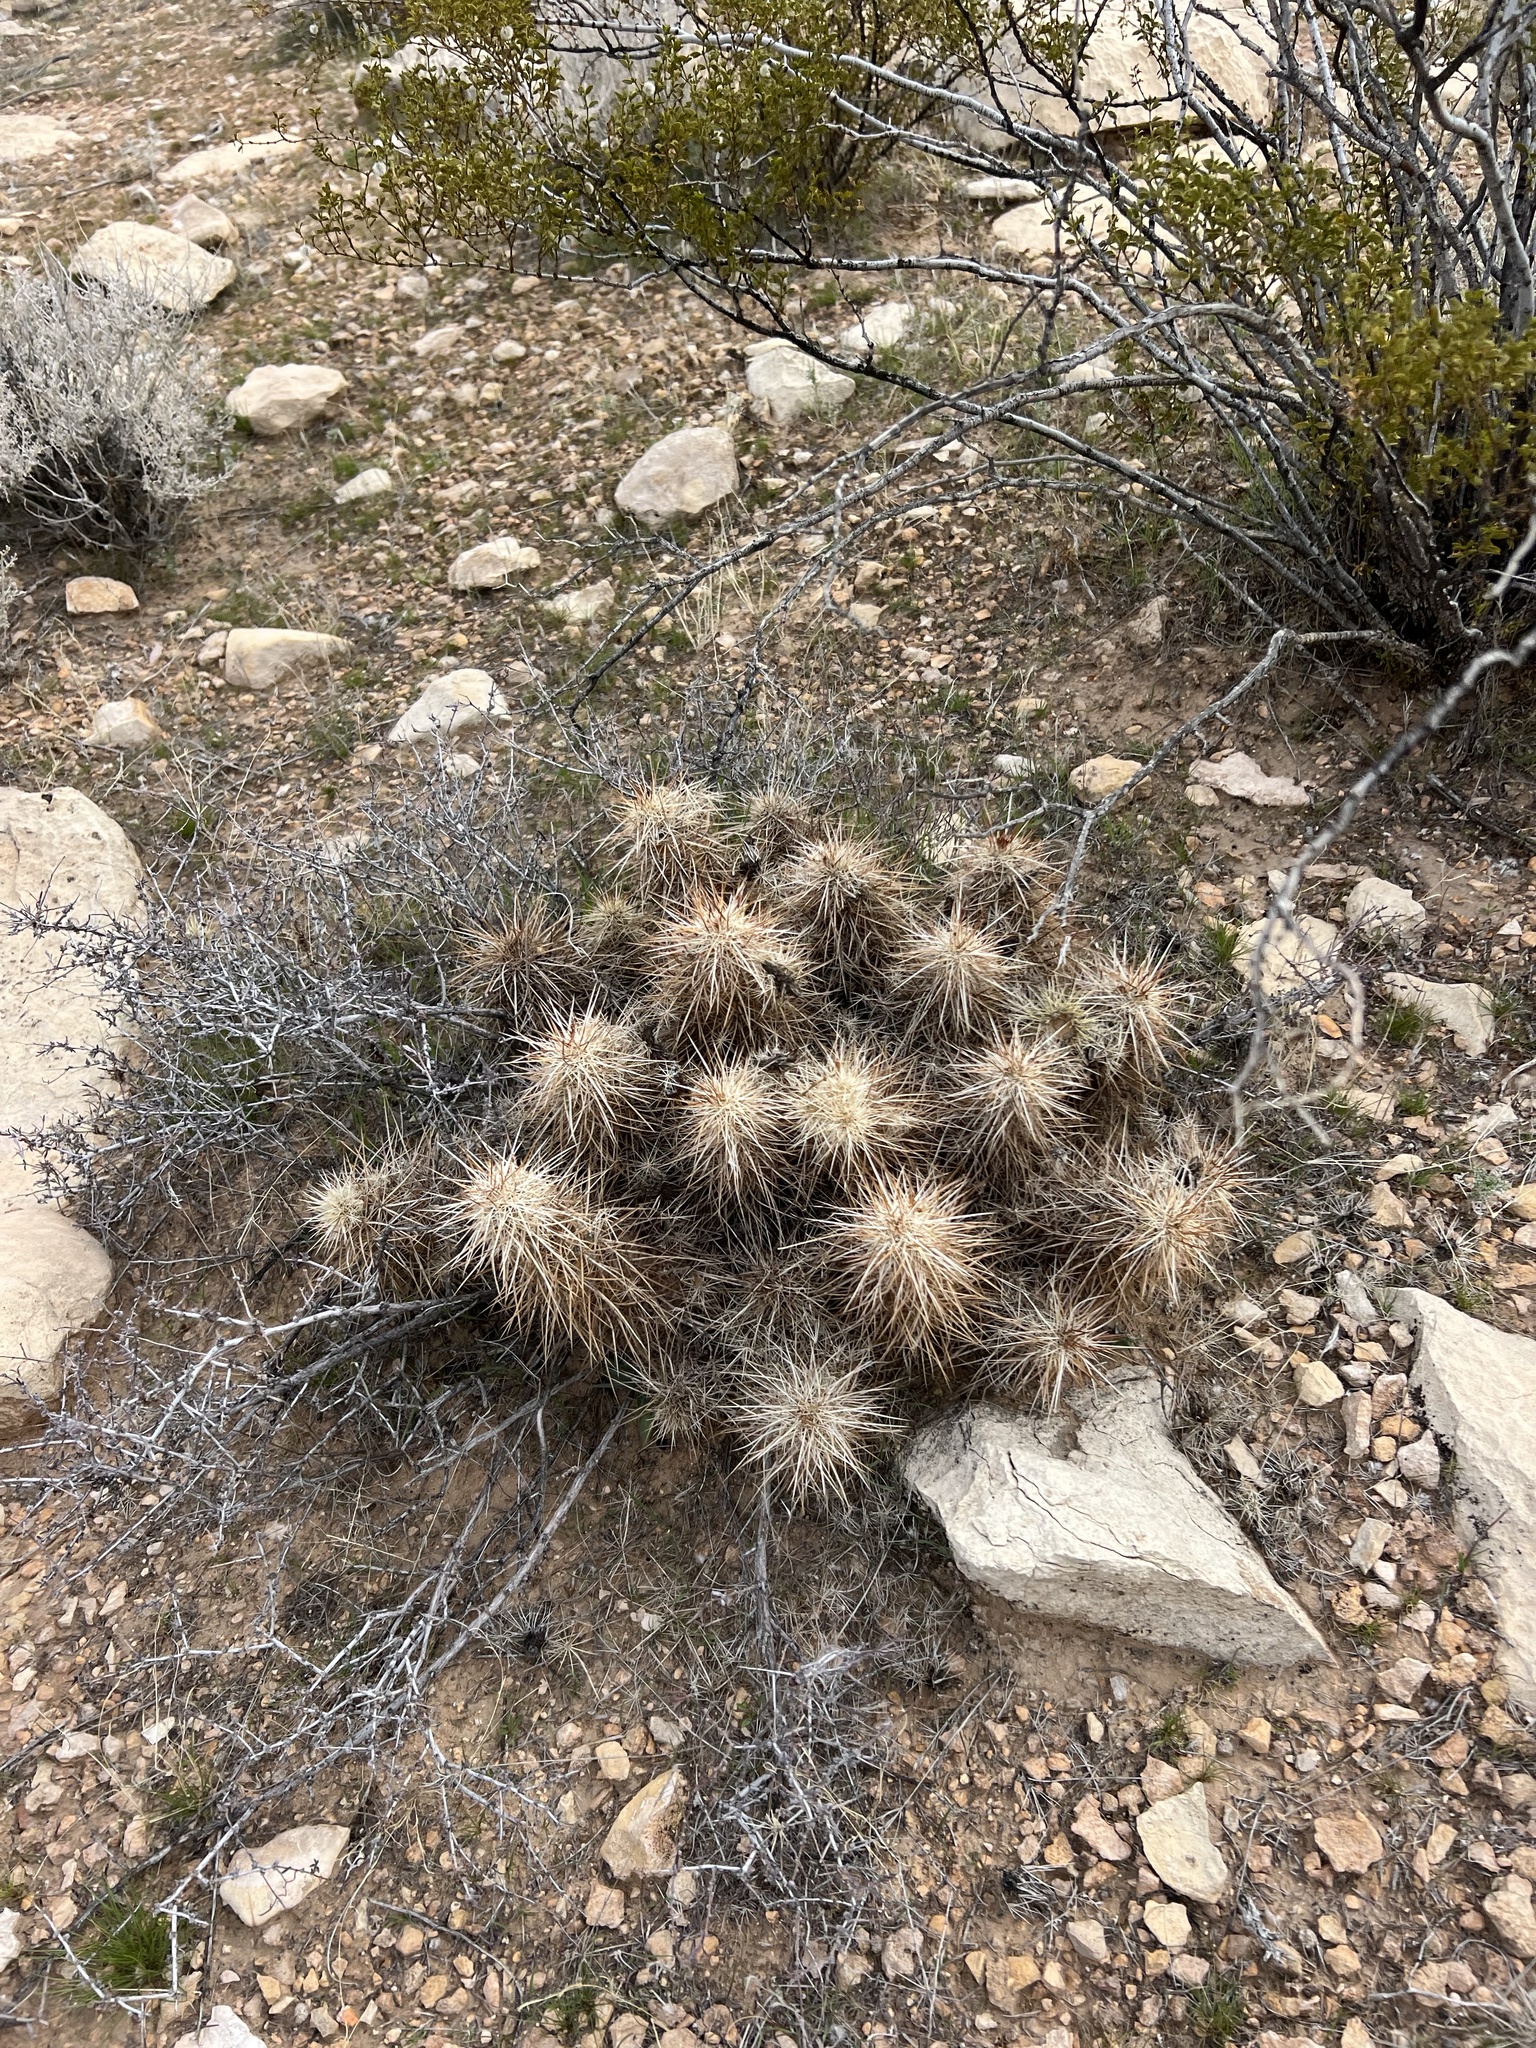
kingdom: Plantae
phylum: Tracheophyta
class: Magnoliopsida
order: Caryophyllales
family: Cactaceae
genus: Echinocereus
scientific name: Echinocereus engelmannii
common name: Engelmann's hedgehog cactus
